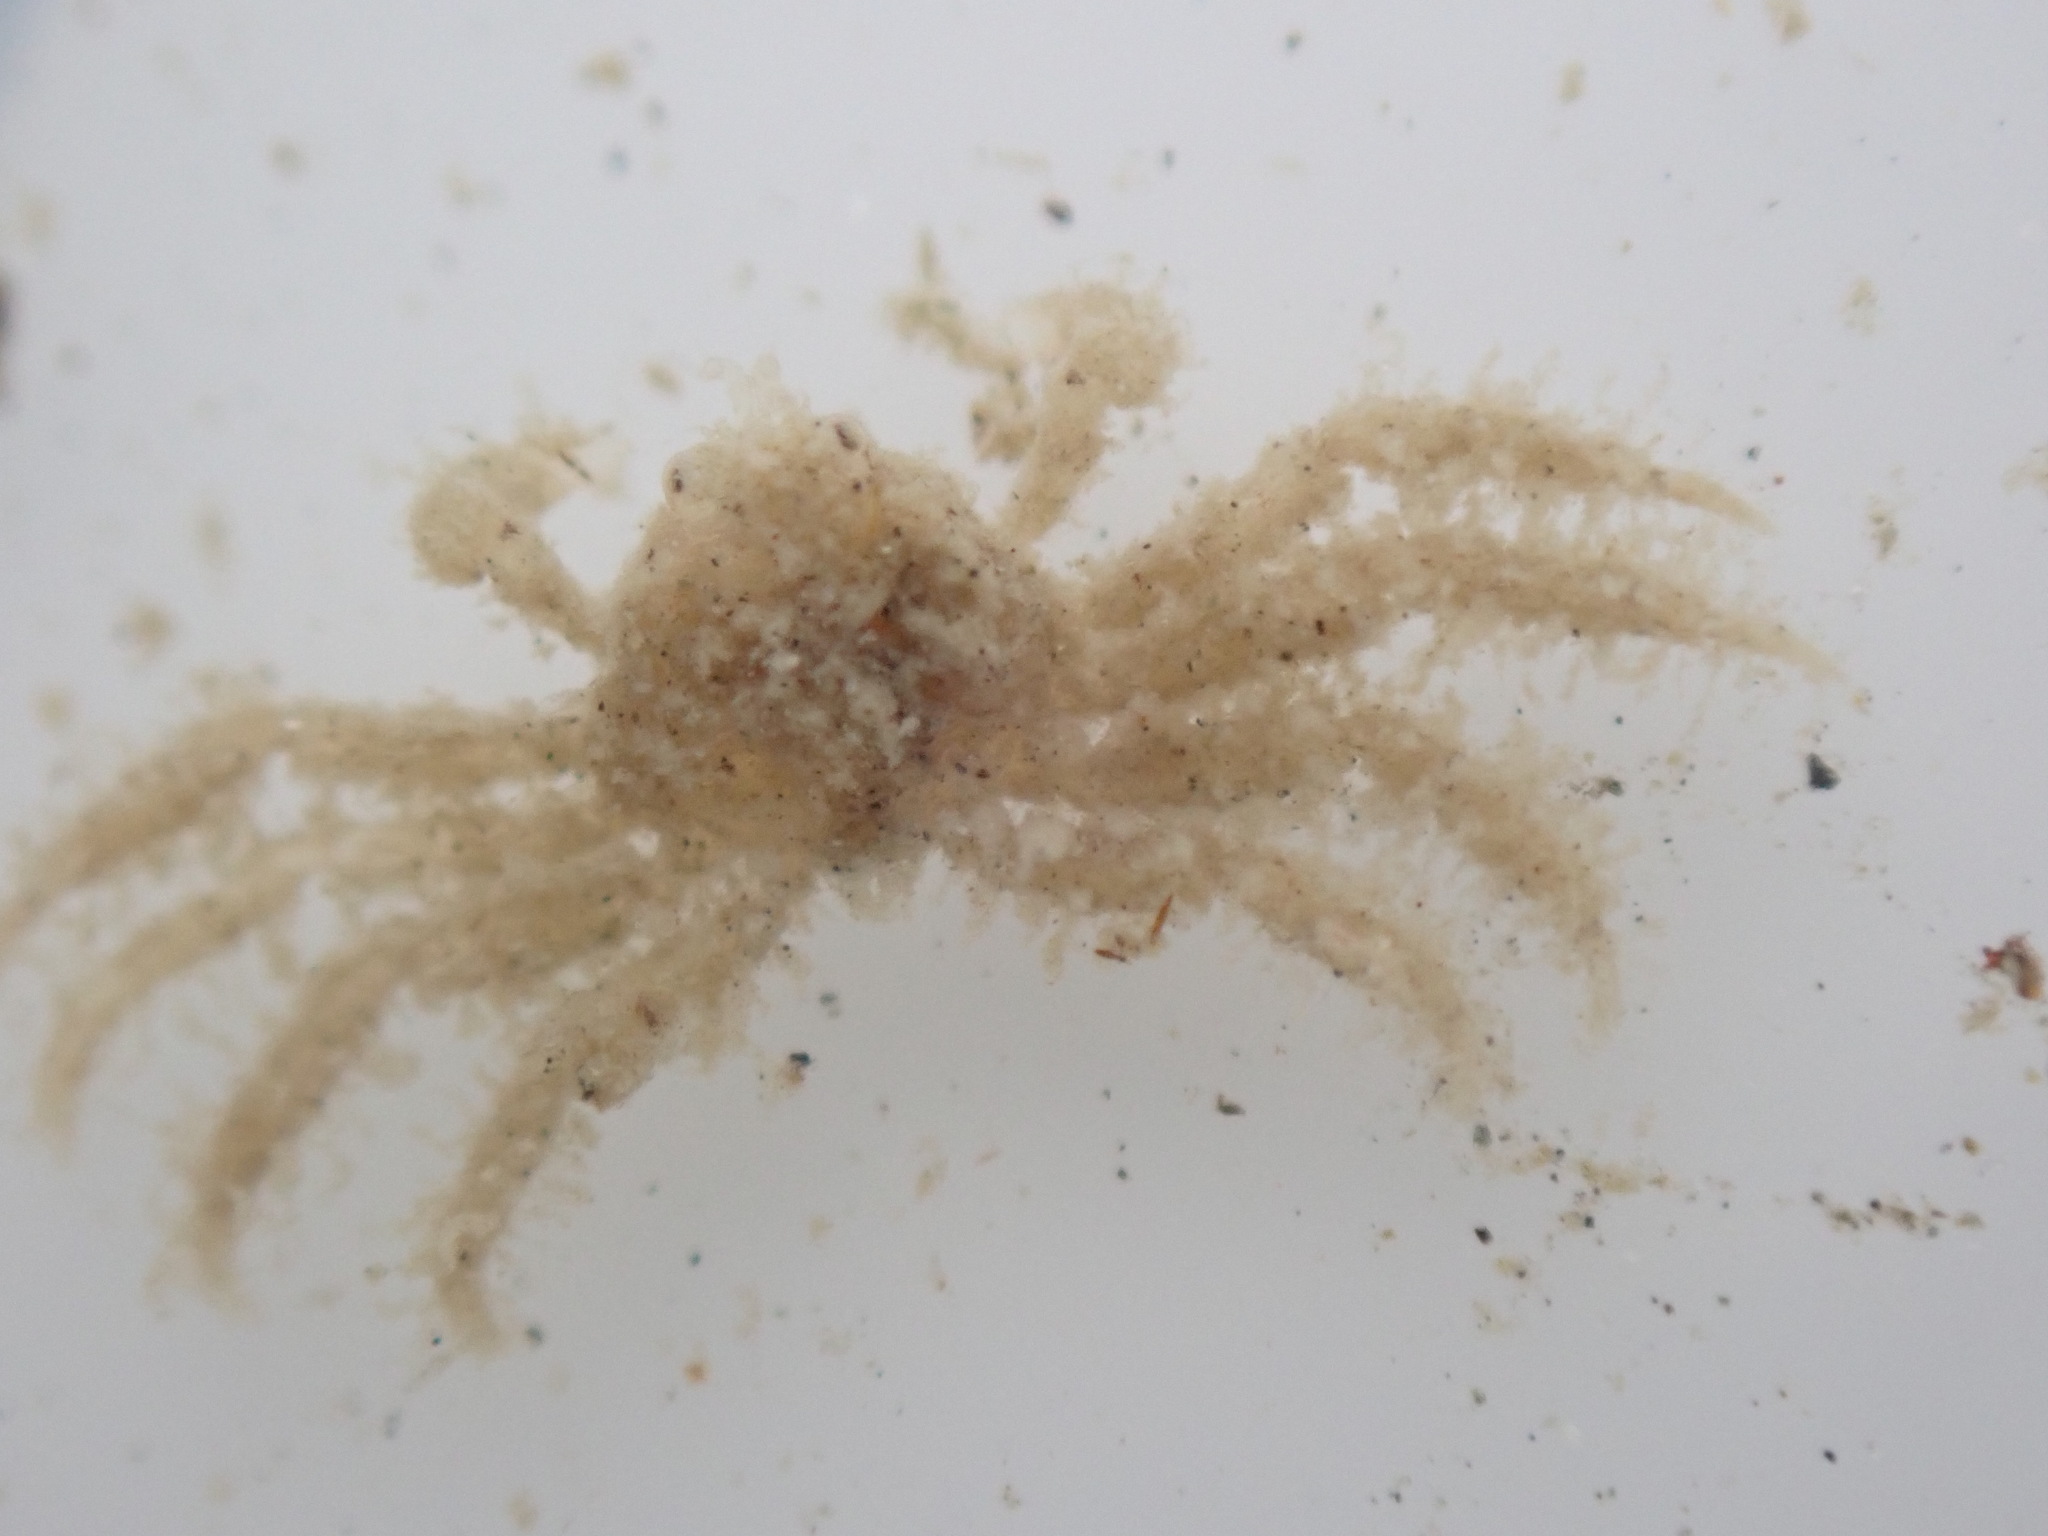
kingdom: Animalia
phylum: Arthropoda
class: Malacostraca
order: Decapoda
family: Hymenosomatidae
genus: Neohymenicus
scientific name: Neohymenicus pubescens
